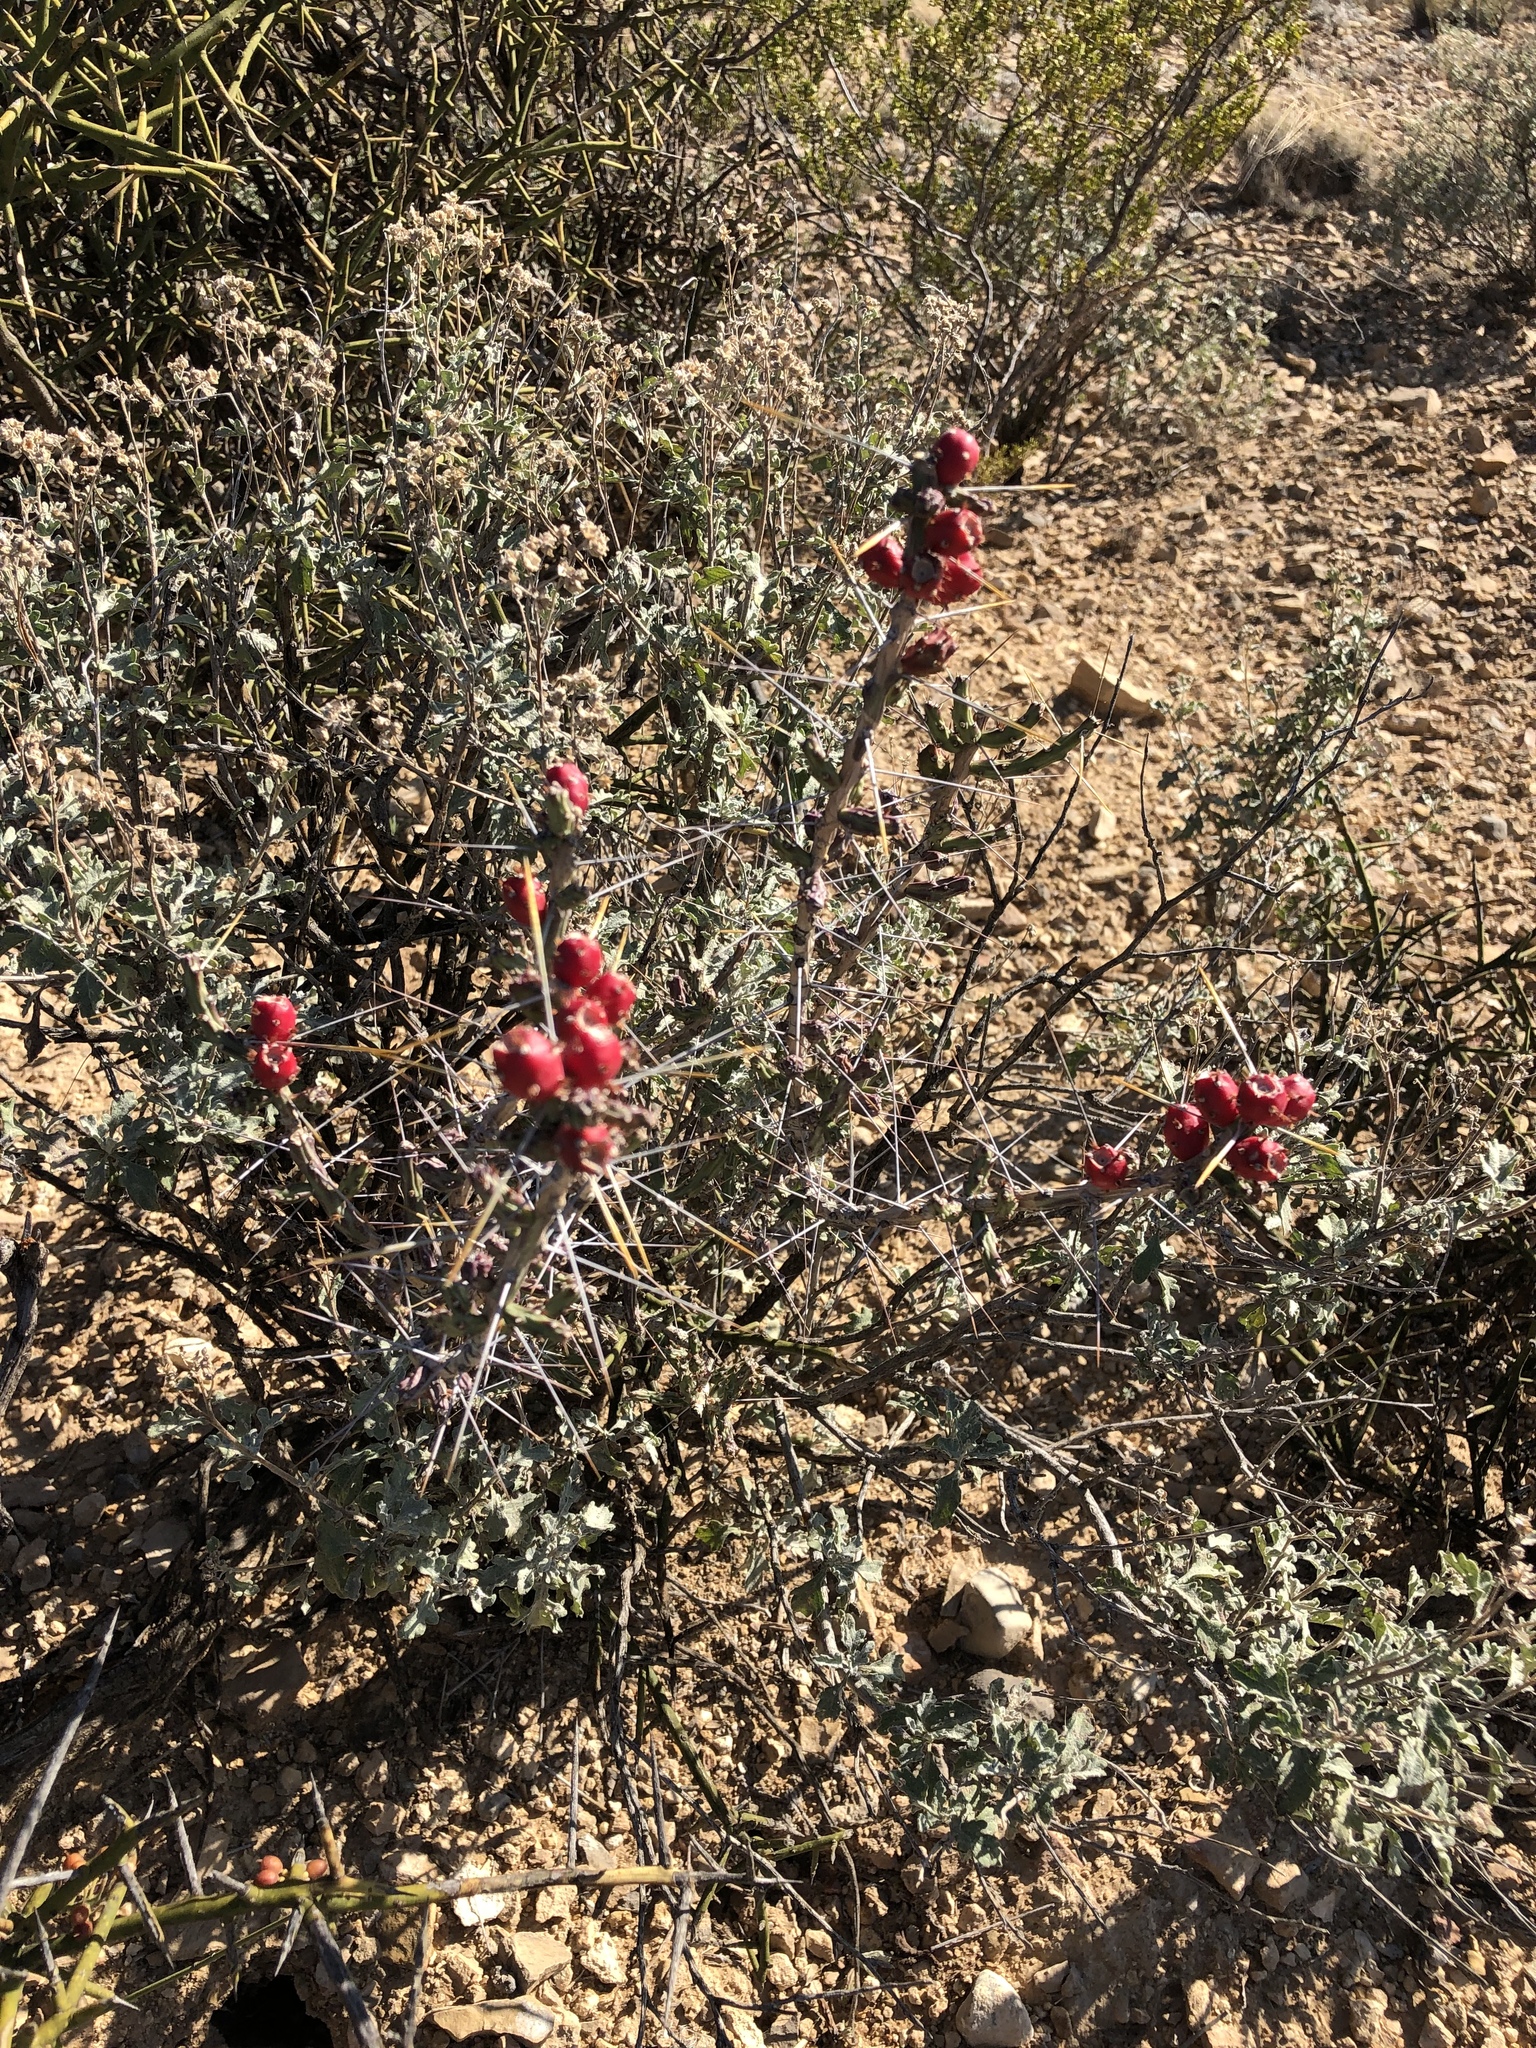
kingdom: Plantae
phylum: Tracheophyta
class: Magnoliopsida
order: Caryophyllales
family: Cactaceae
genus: Cylindropuntia
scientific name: Cylindropuntia leptocaulis
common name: Christmas cactus
